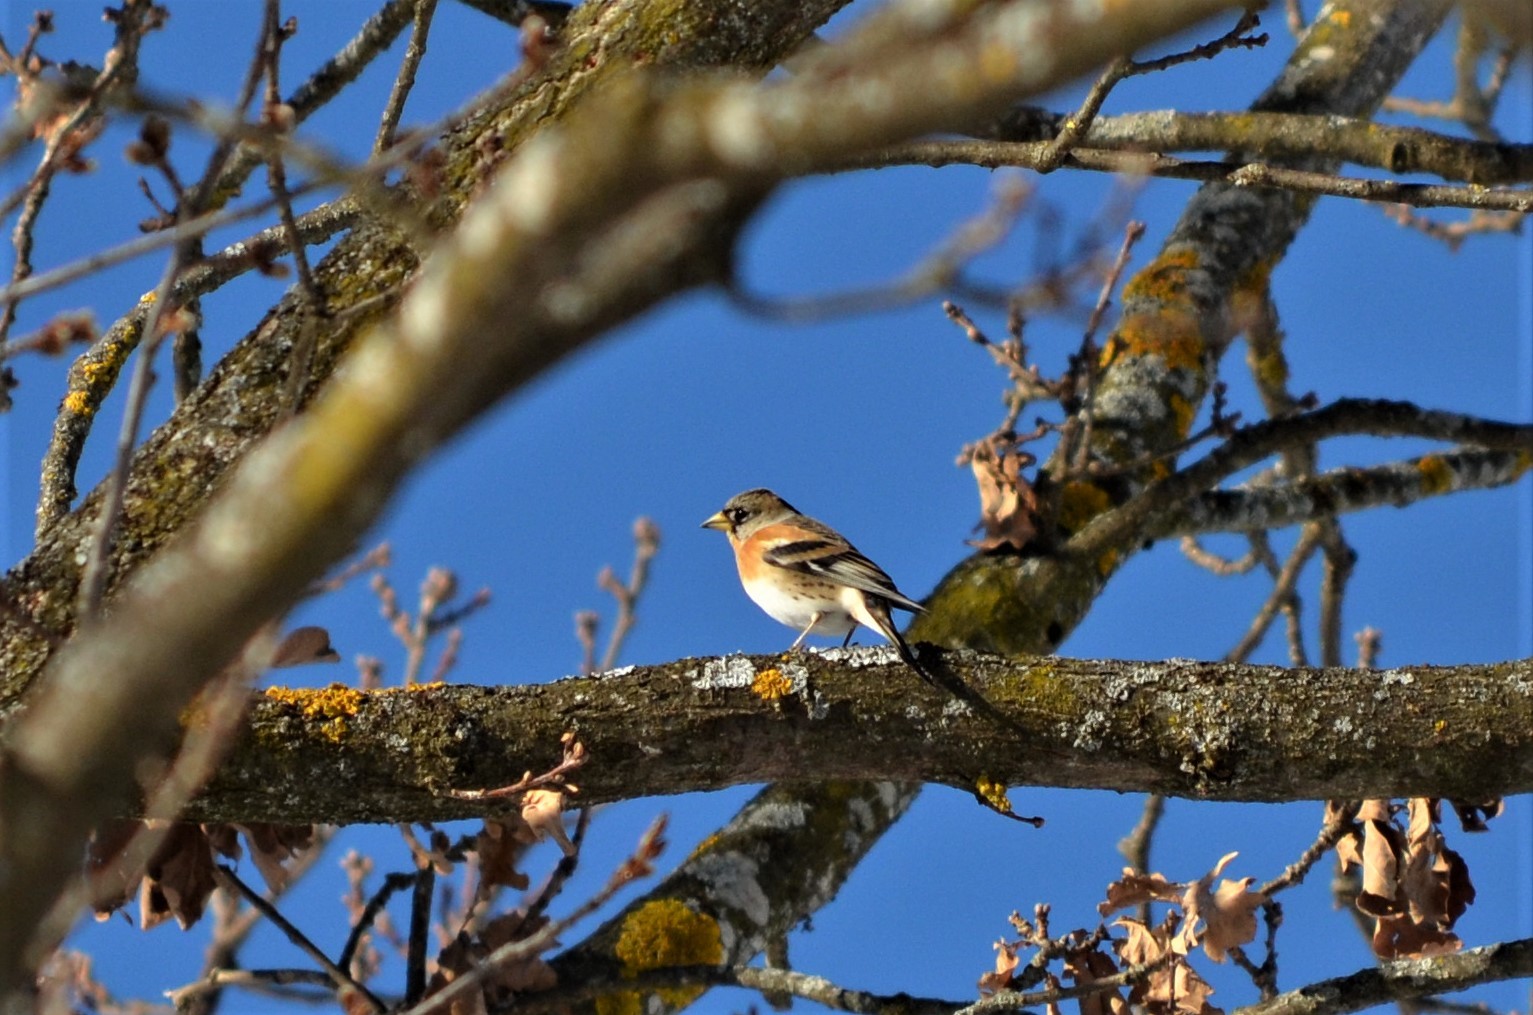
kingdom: Animalia
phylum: Chordata
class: Aves
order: Passeriformes
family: Fringillidae
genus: Fringilla
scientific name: Fringilla montifringilla
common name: Brambling
